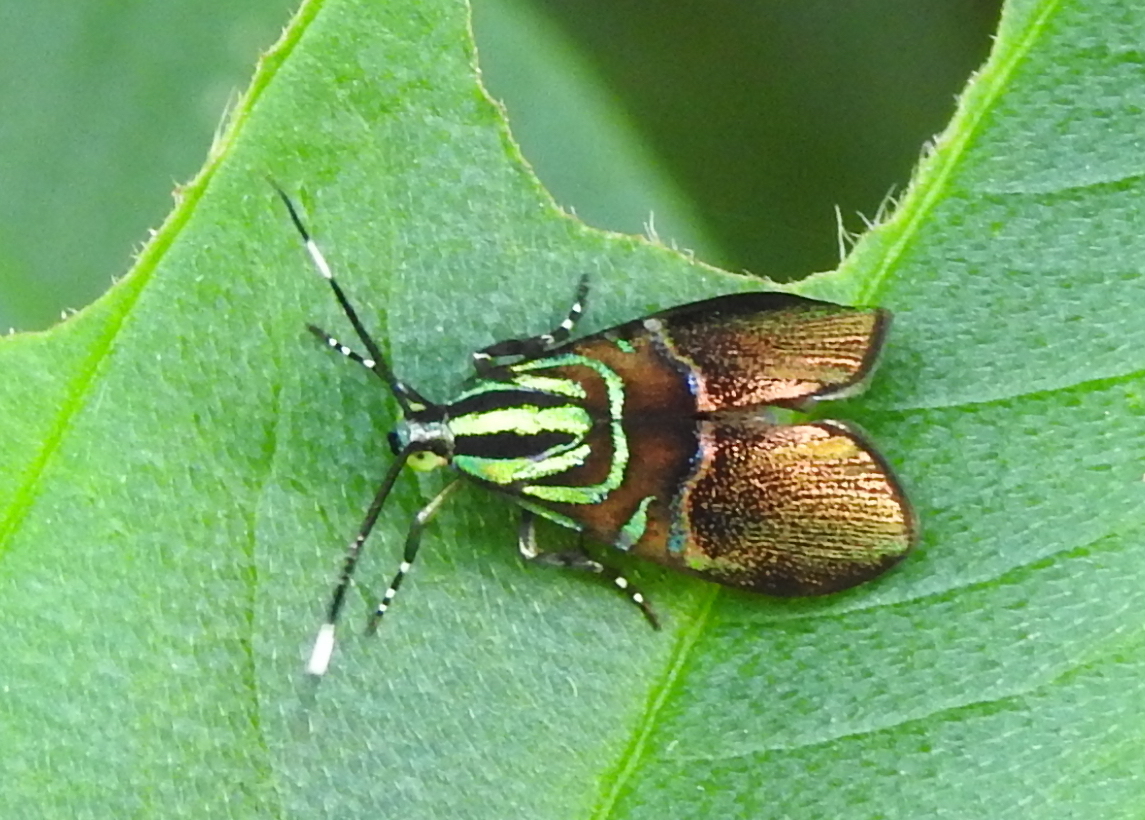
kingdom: Animalia
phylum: Arthropoda
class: Insecta
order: Lepidoptera
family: Choreutidae
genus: Saptha
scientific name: Saptha exanthista
